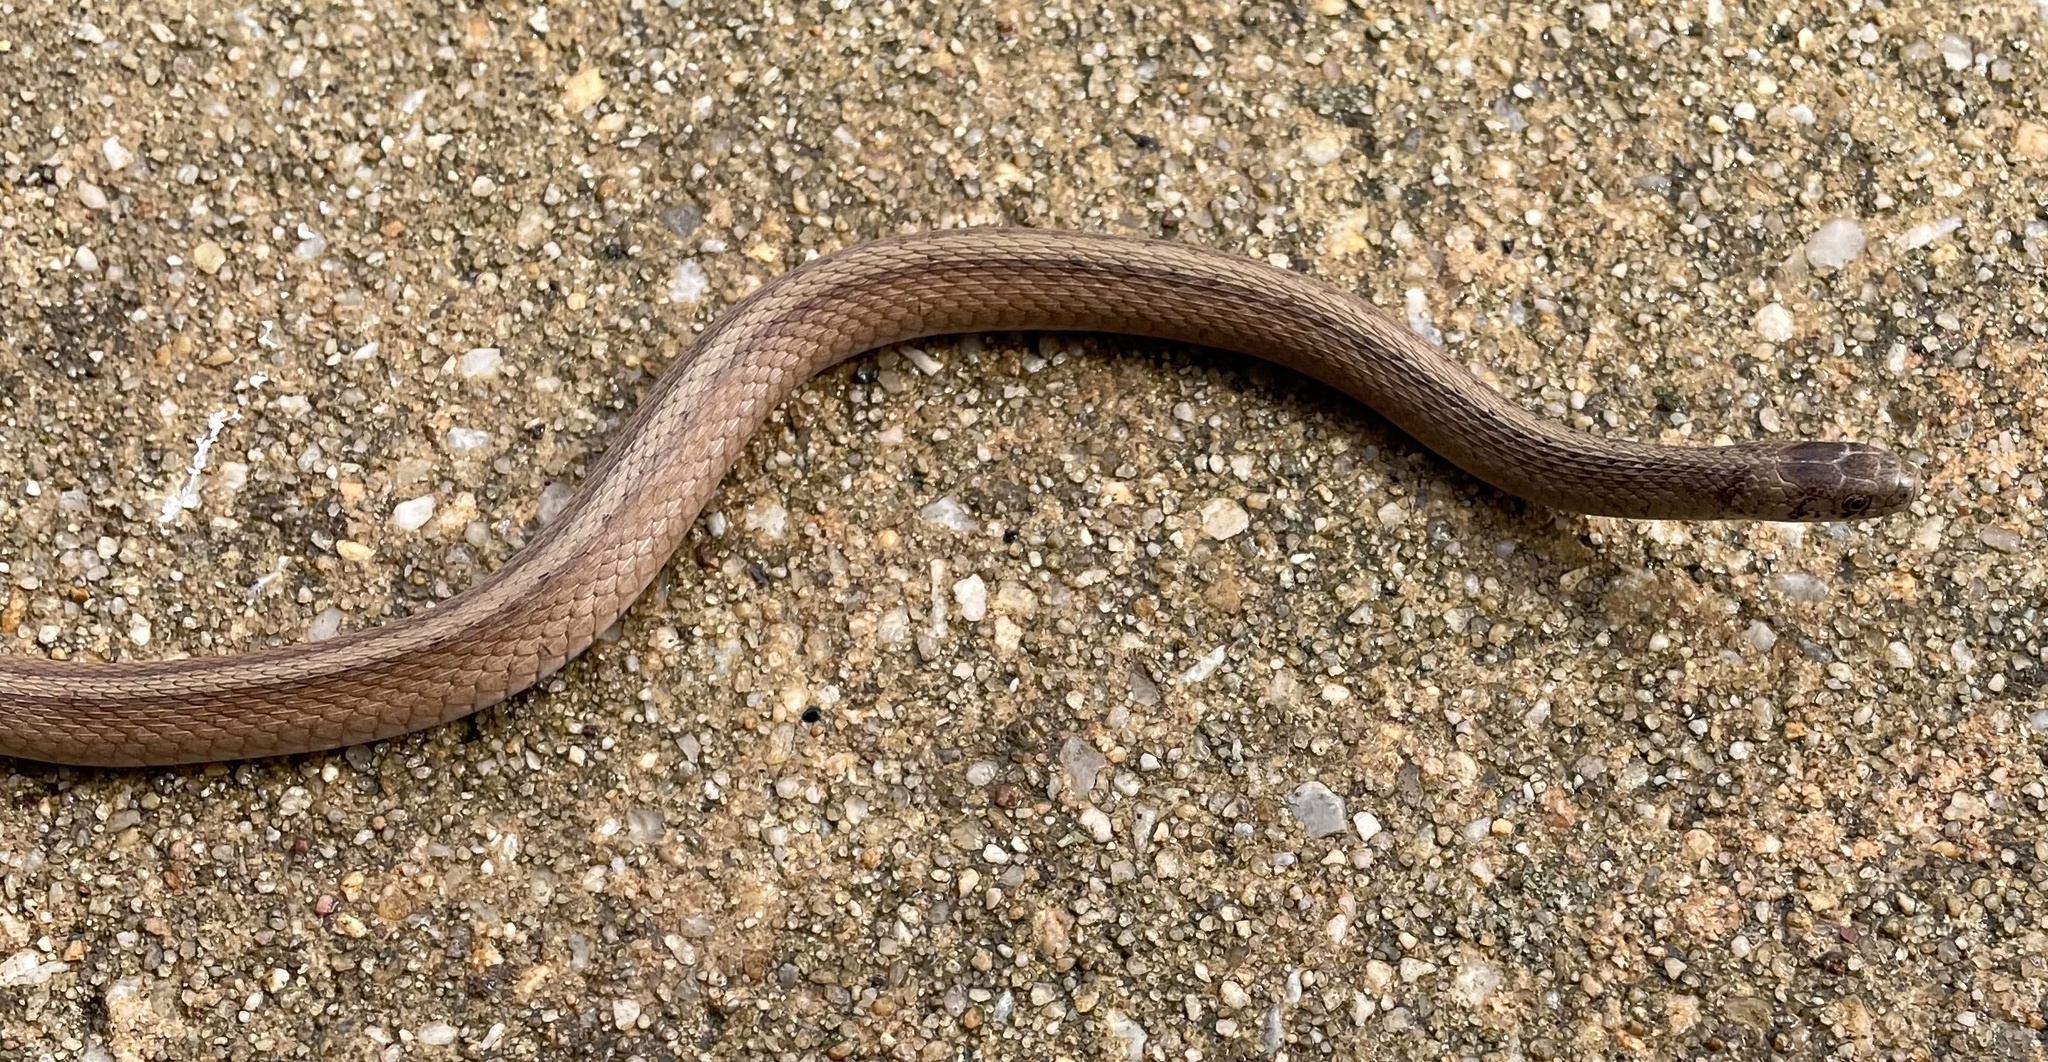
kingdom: Animalia
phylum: Chordata
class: Squamata
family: Colubridae
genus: Storeria
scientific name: Storeria dekayi
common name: (dekay’s) brown snake
